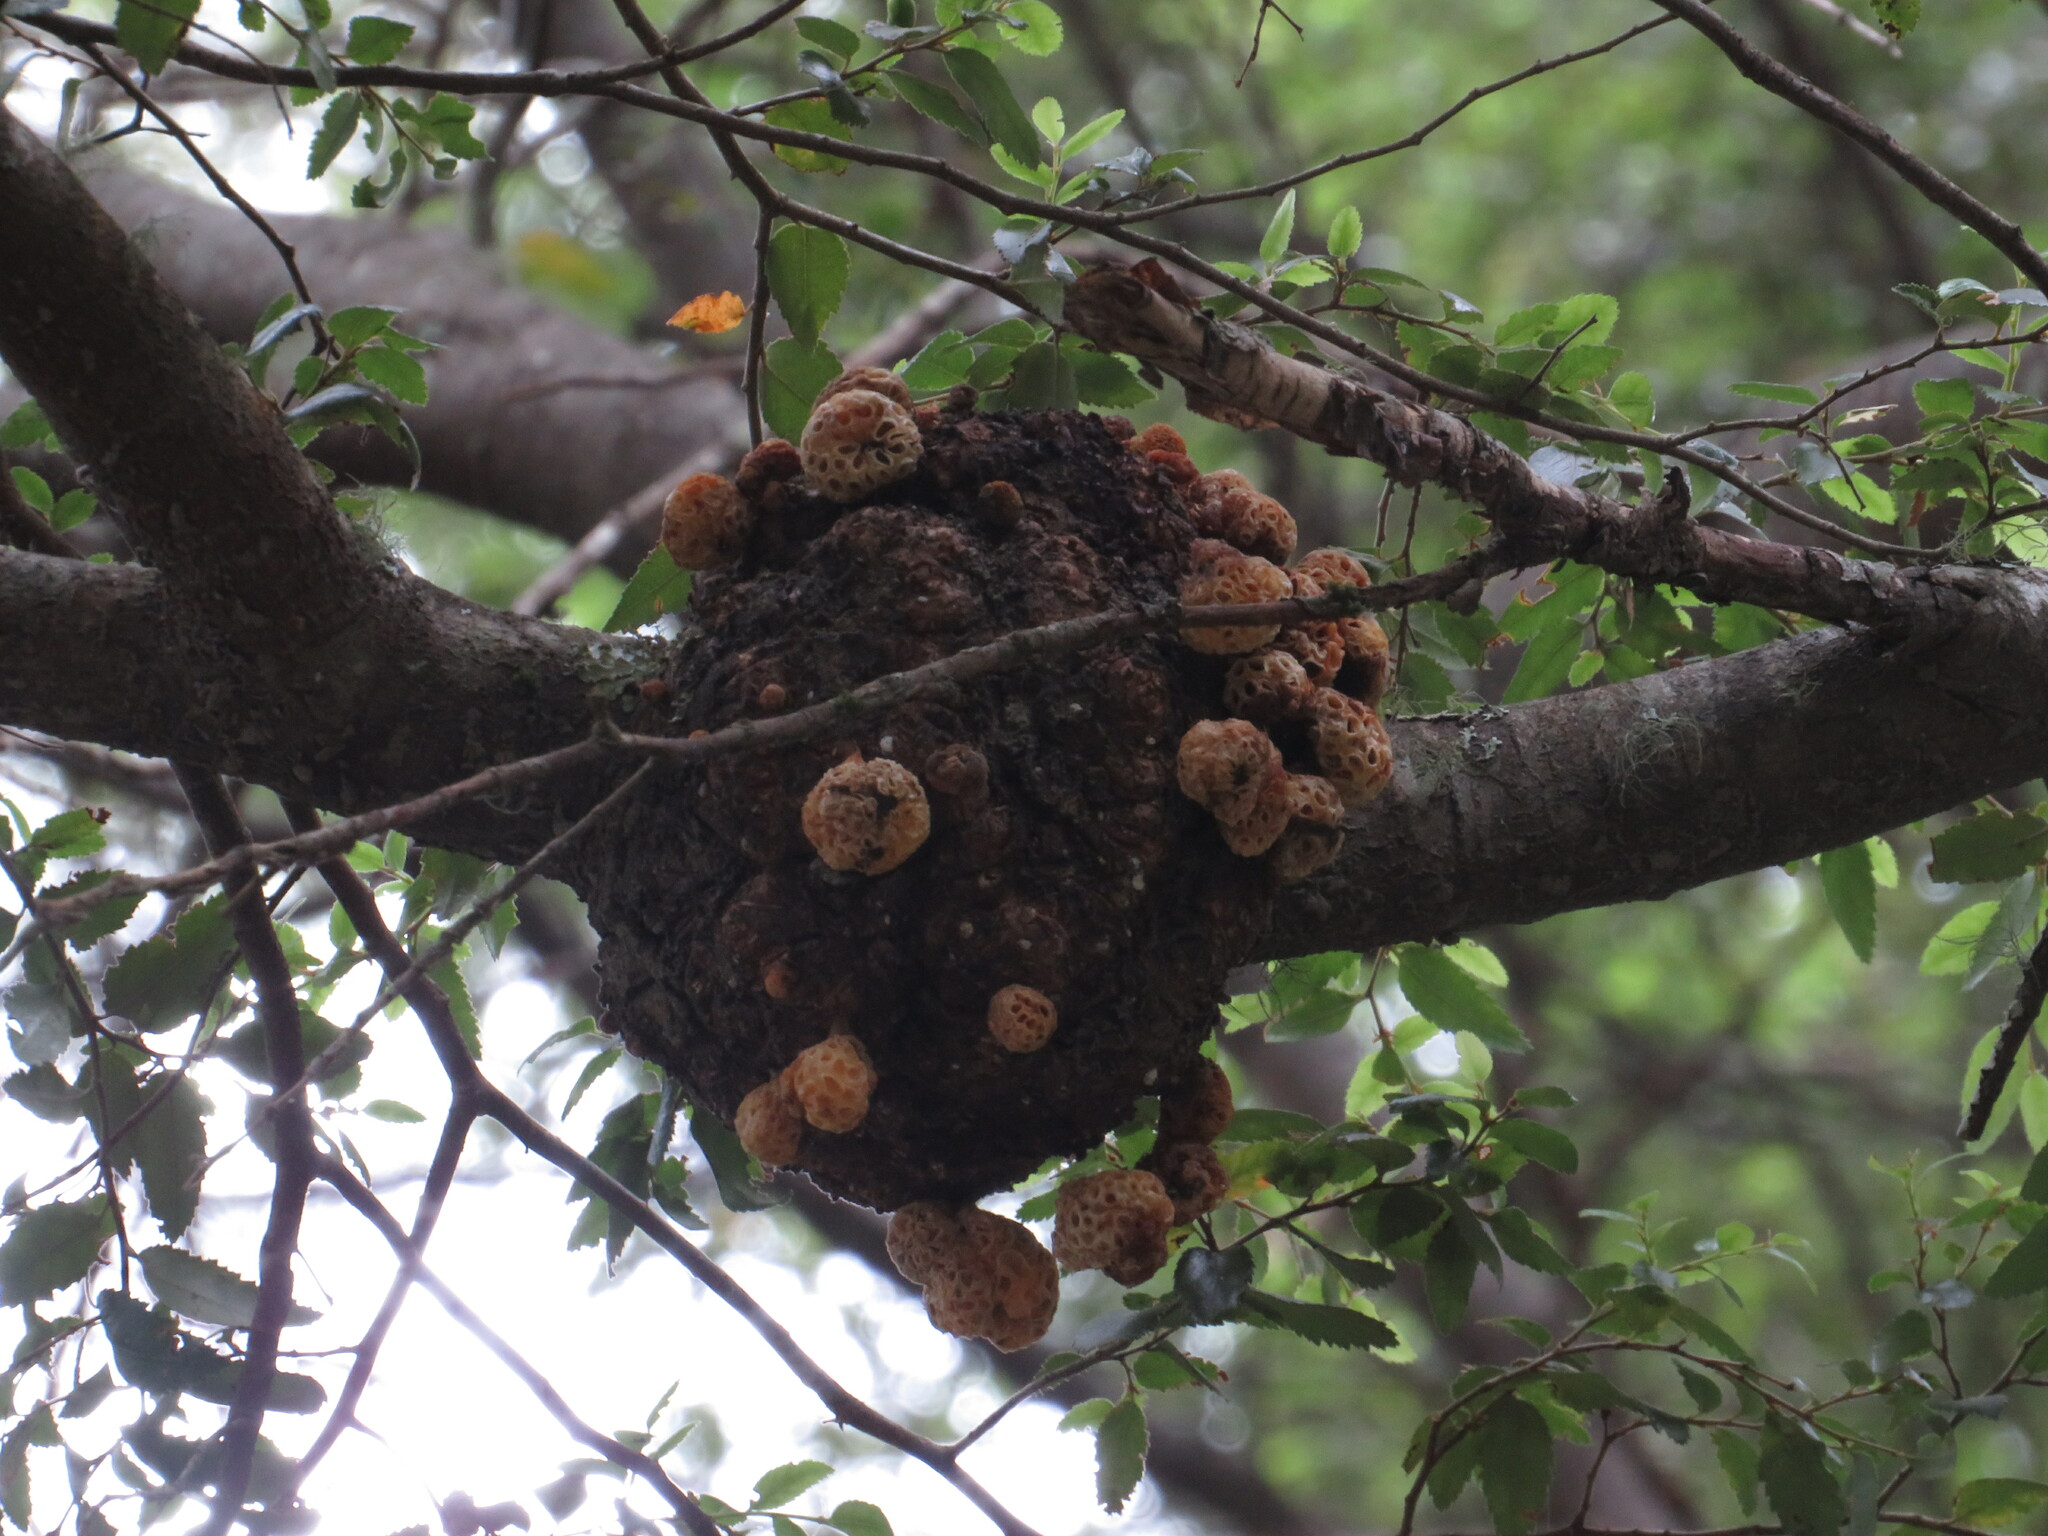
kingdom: Fungi
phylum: Ascomycota
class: Leotiomycetes
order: Cyttariales
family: Cyttariaceae
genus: Cyttaria
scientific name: Cyttaria hariotii
